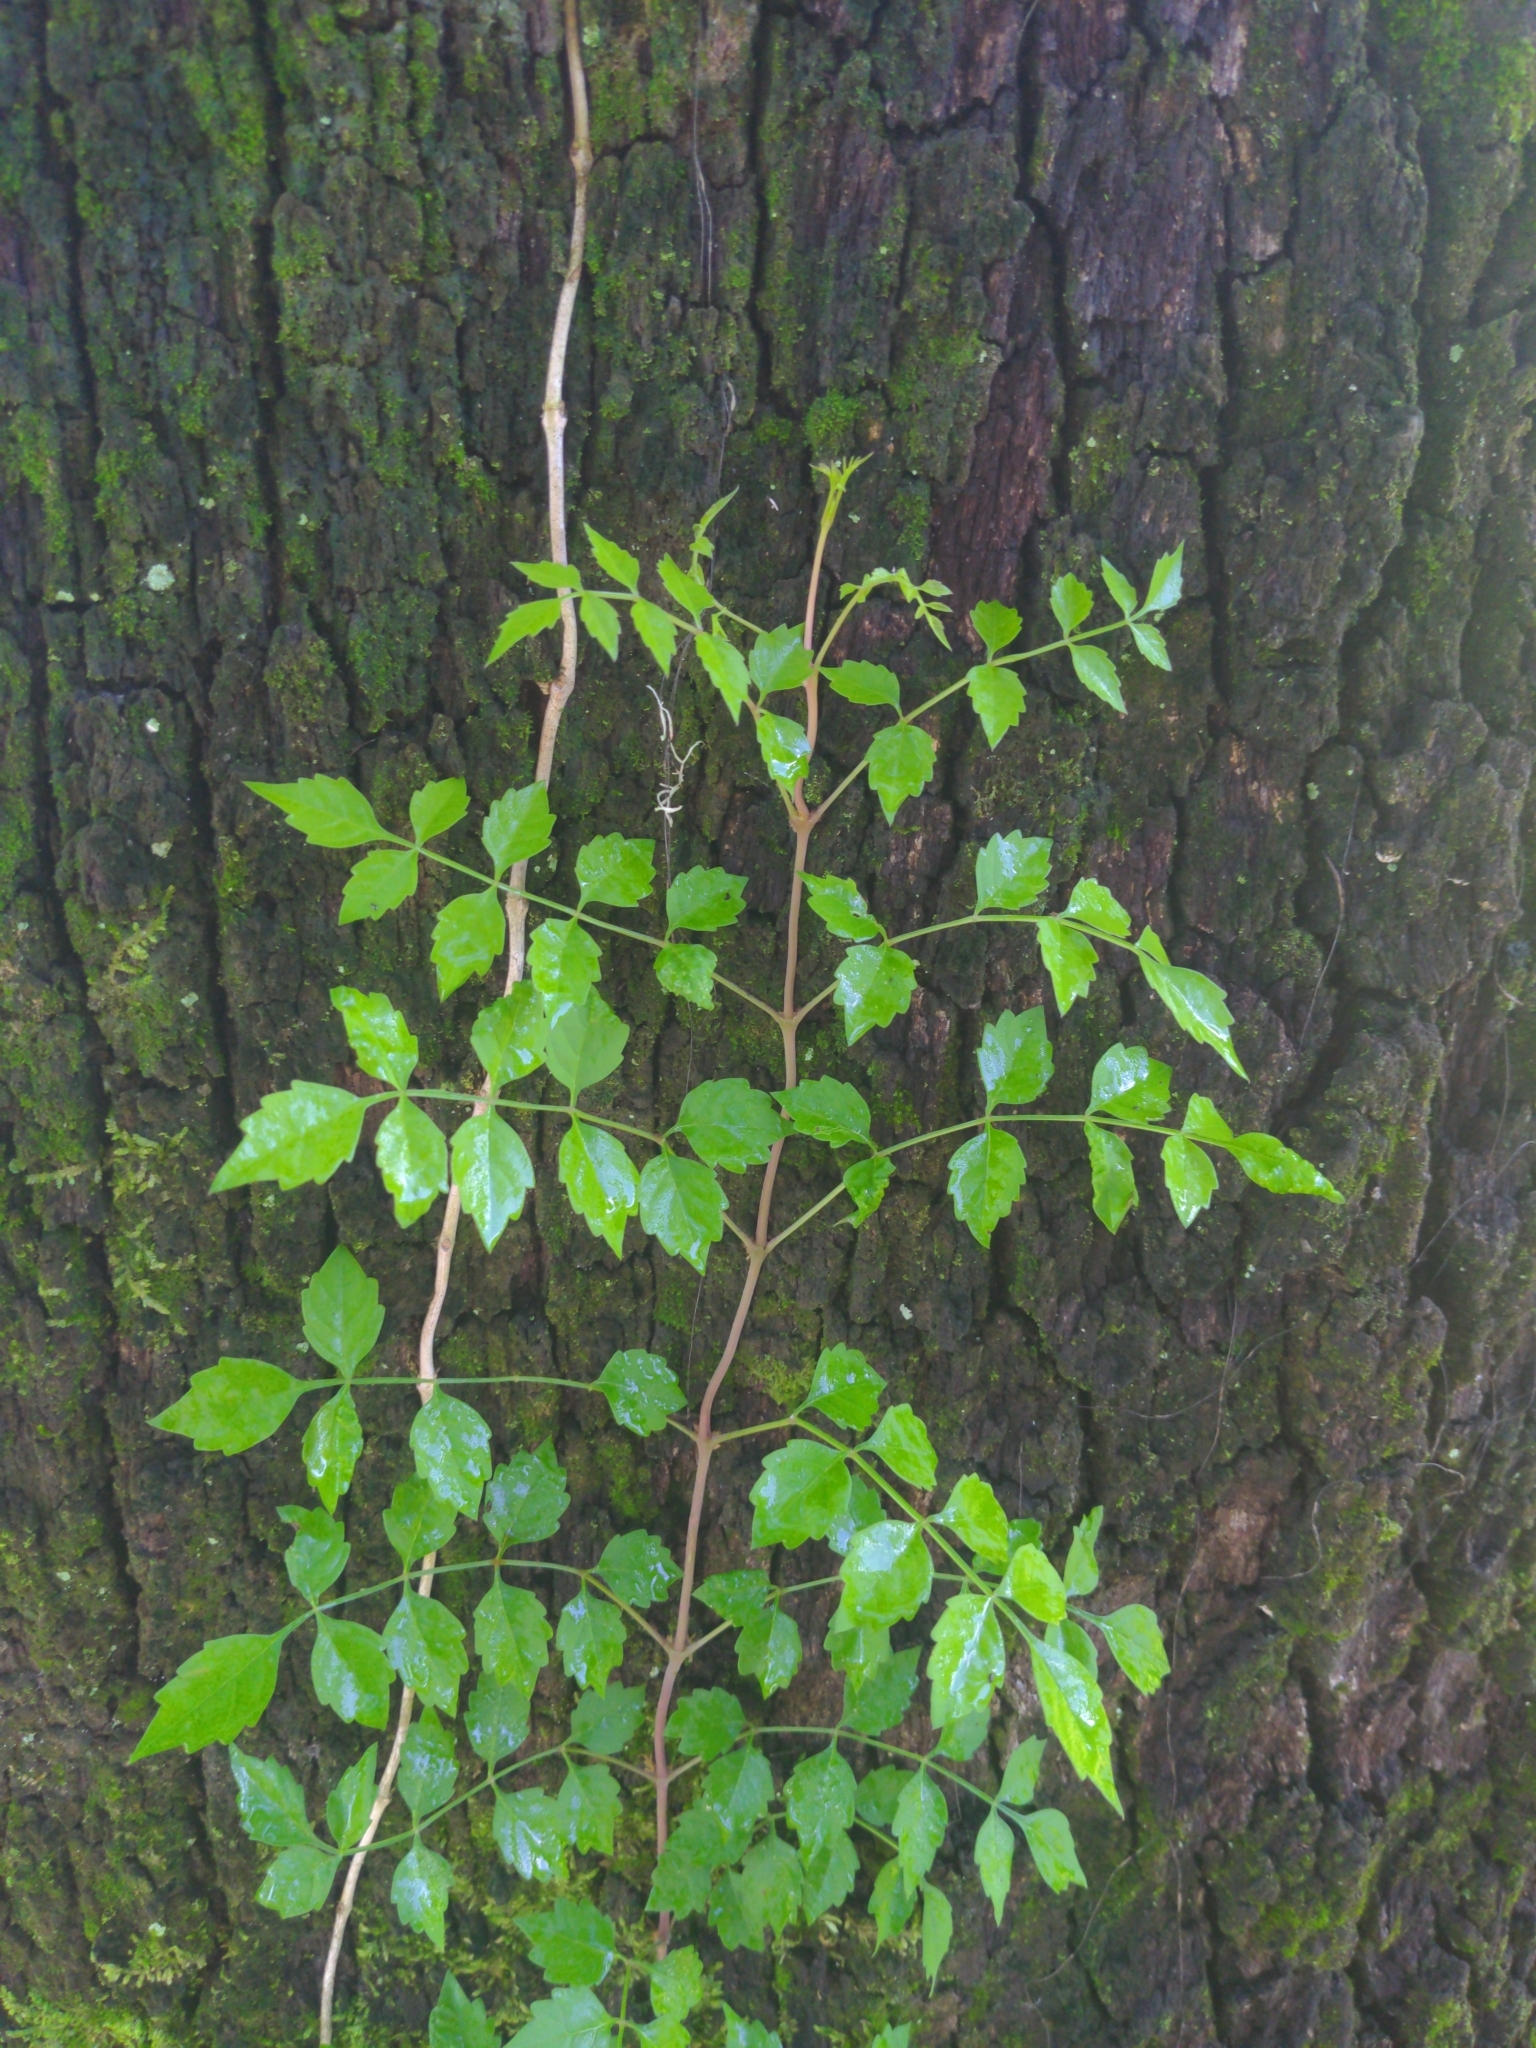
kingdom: Plantae
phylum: Tracheophyta
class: Magnoliopsida
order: Lamiales
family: Bignoniaceae
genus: Campsis
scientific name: Campsis radicans
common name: Trumpet-creeper
